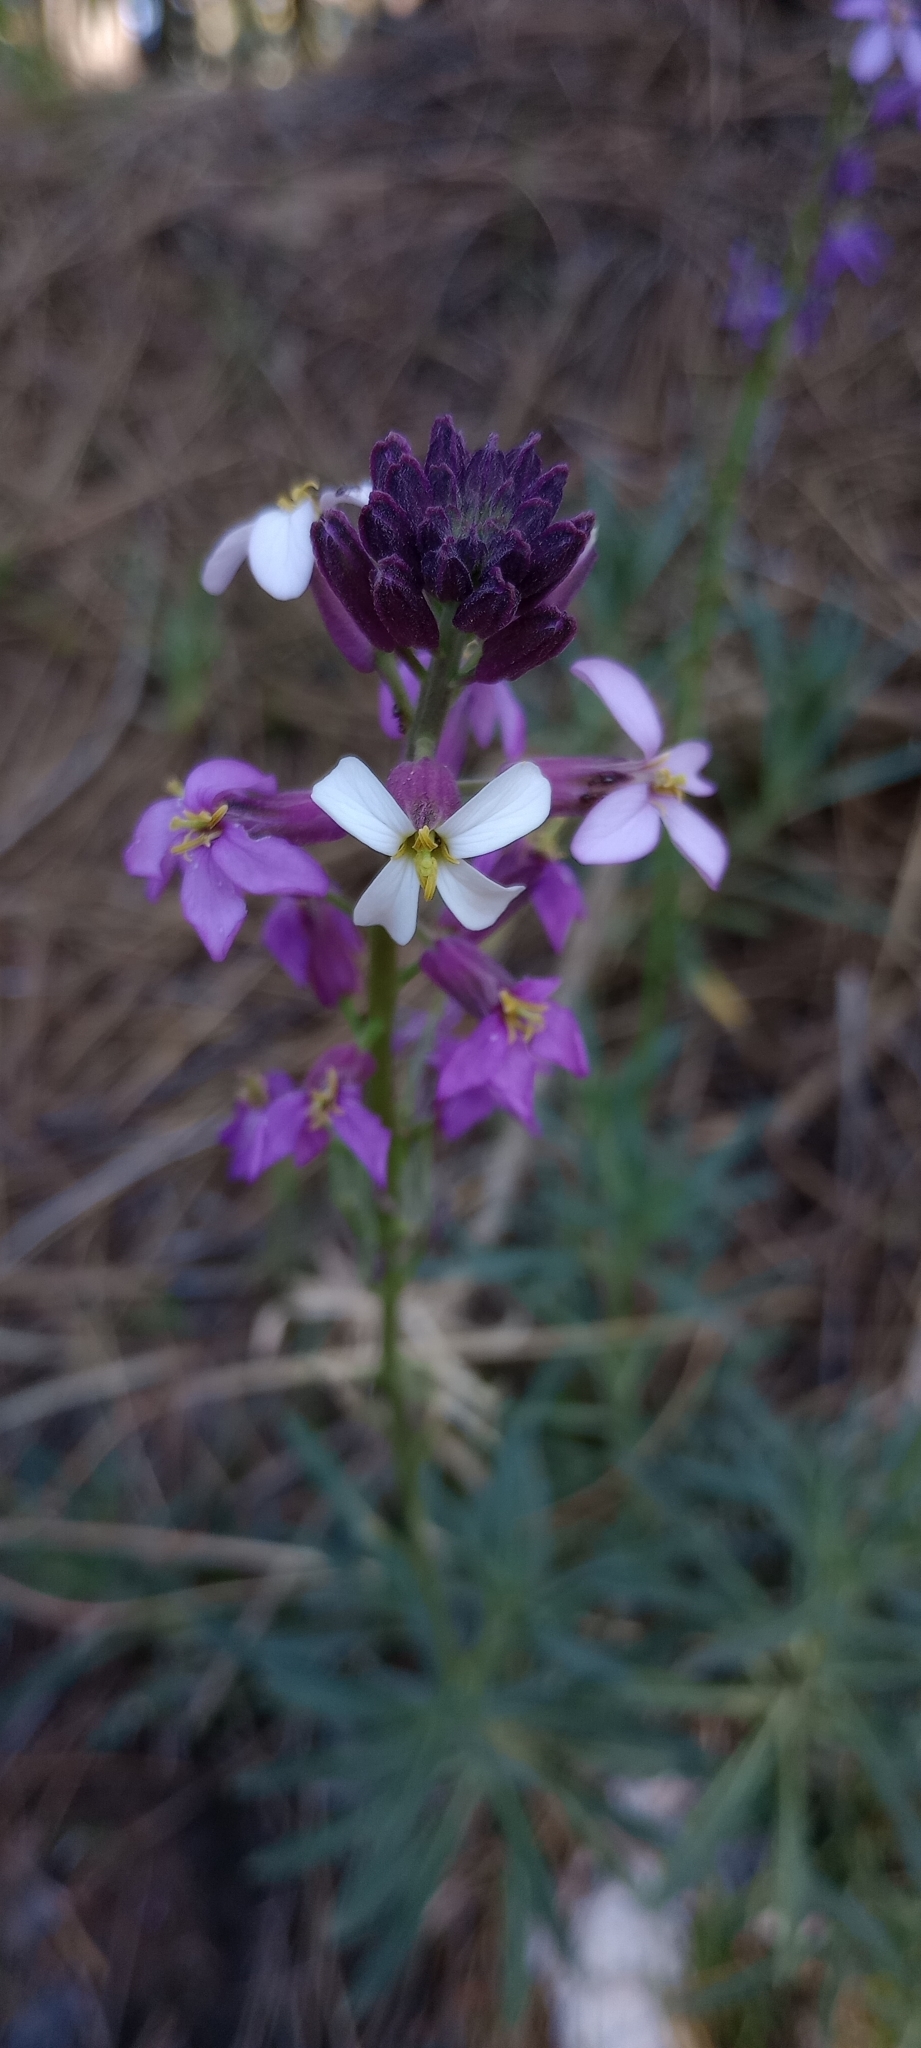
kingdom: Plantae
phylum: Tracheophyta
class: Magnoliopsida
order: Brassicales
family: Brassicaceae
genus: Erysimum
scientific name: Erysimum scoparium
